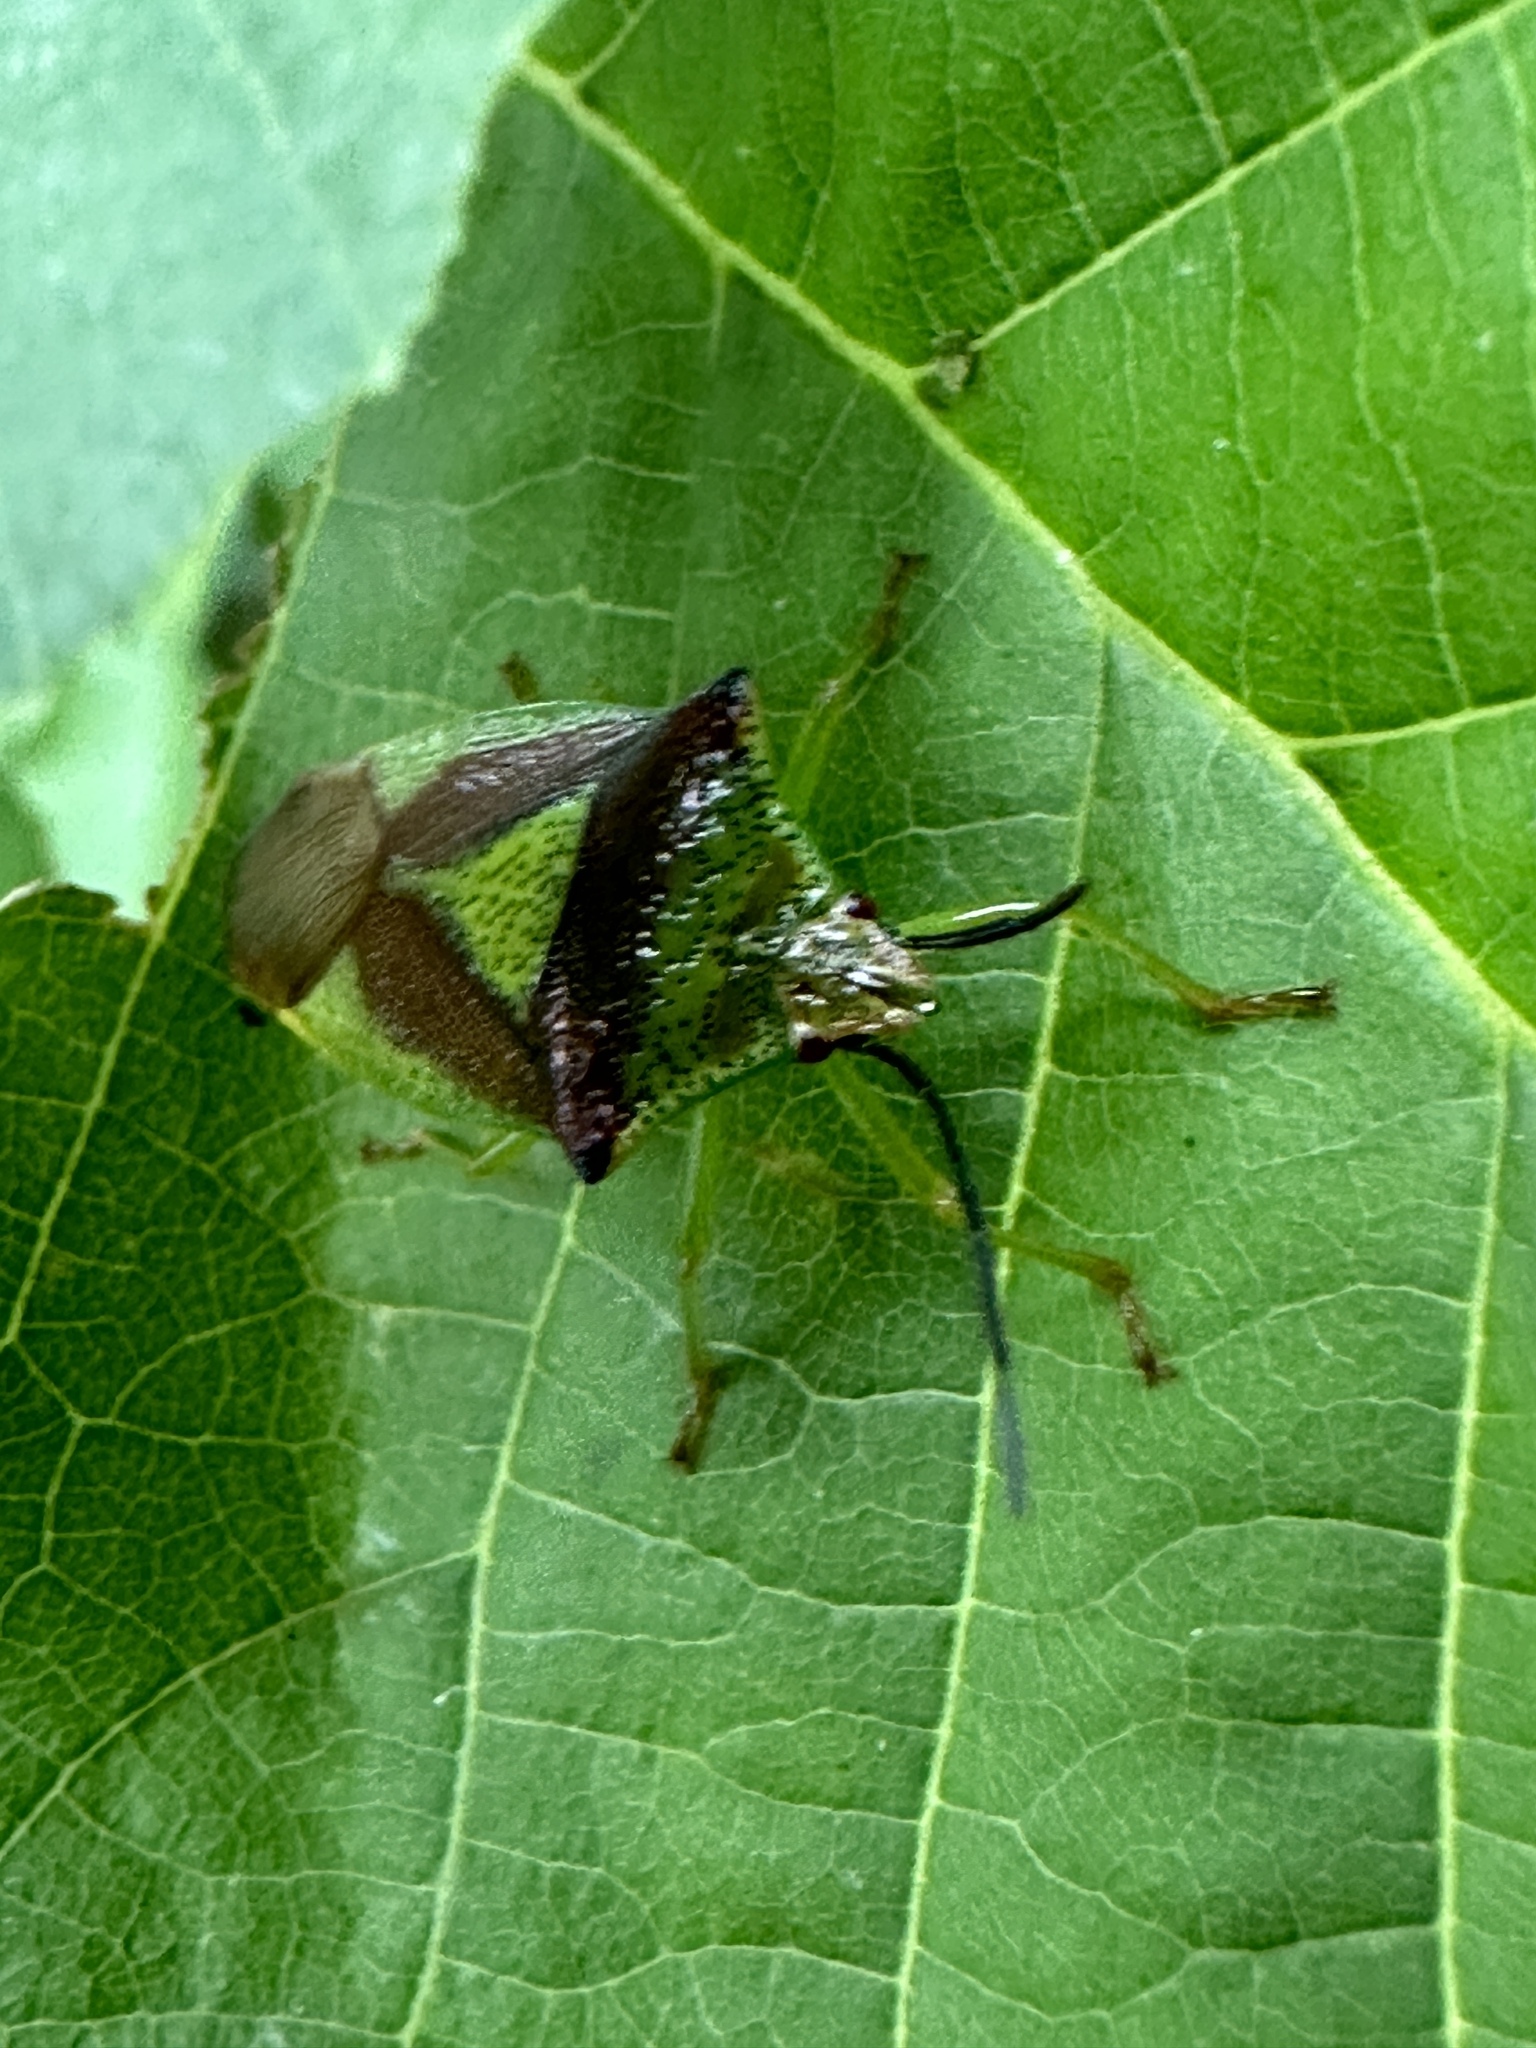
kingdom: Animalia
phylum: Arthropoda
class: Insecta
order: Hemiptera
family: Acanthosomatidae
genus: Acanthosoma
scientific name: Acanthosoma haemorrhoidale
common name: Hawthorn shieldbug
